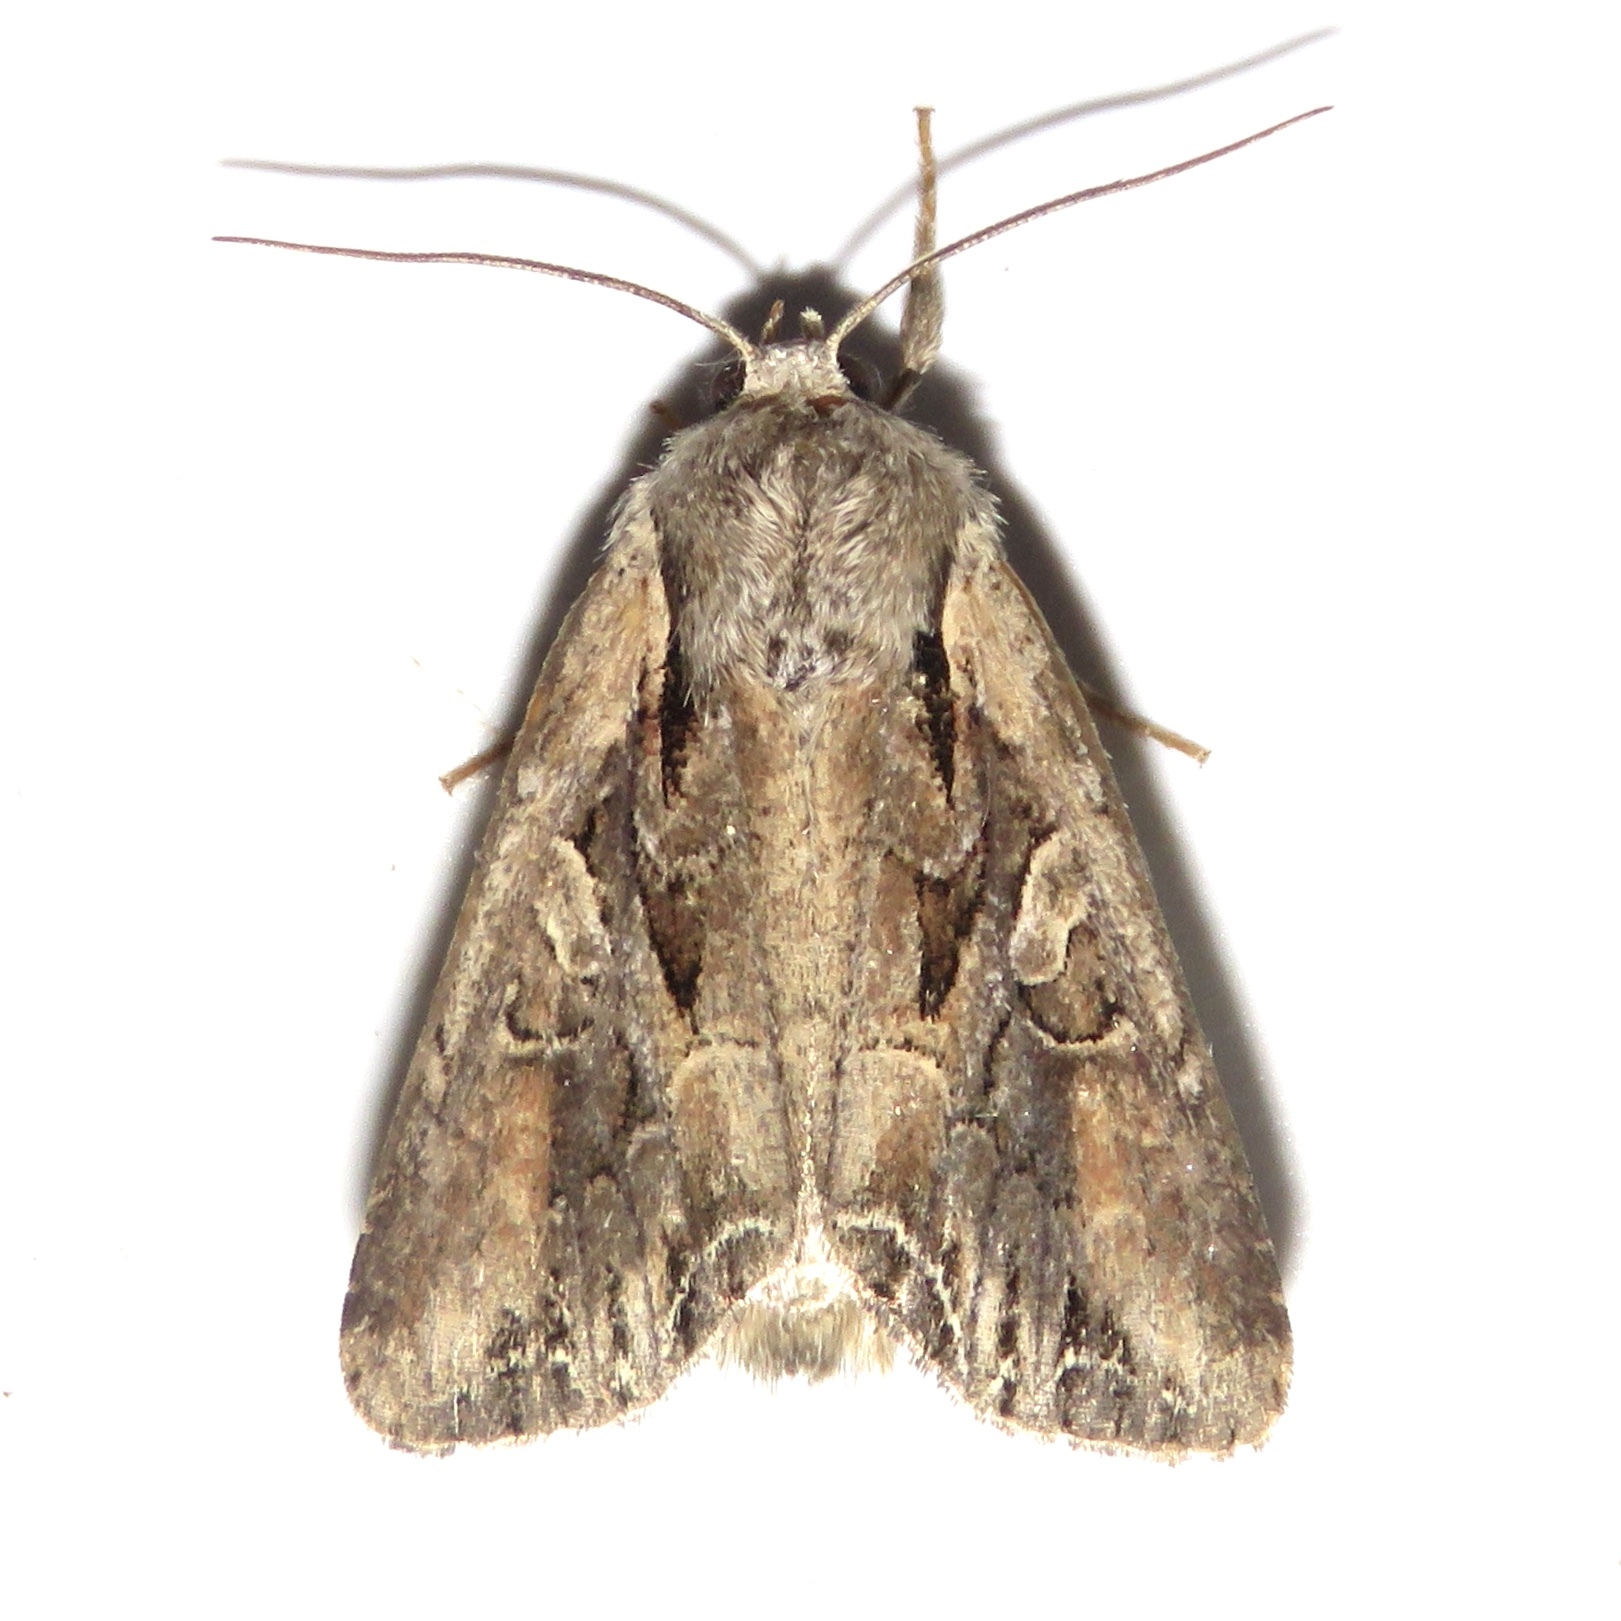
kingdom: Animalia
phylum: Arthropoda
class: Insecta
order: Lepidoptera
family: Noctuidae
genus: Lacanobia
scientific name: Lacanobia subjuncta
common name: Speckled cutworm moth
